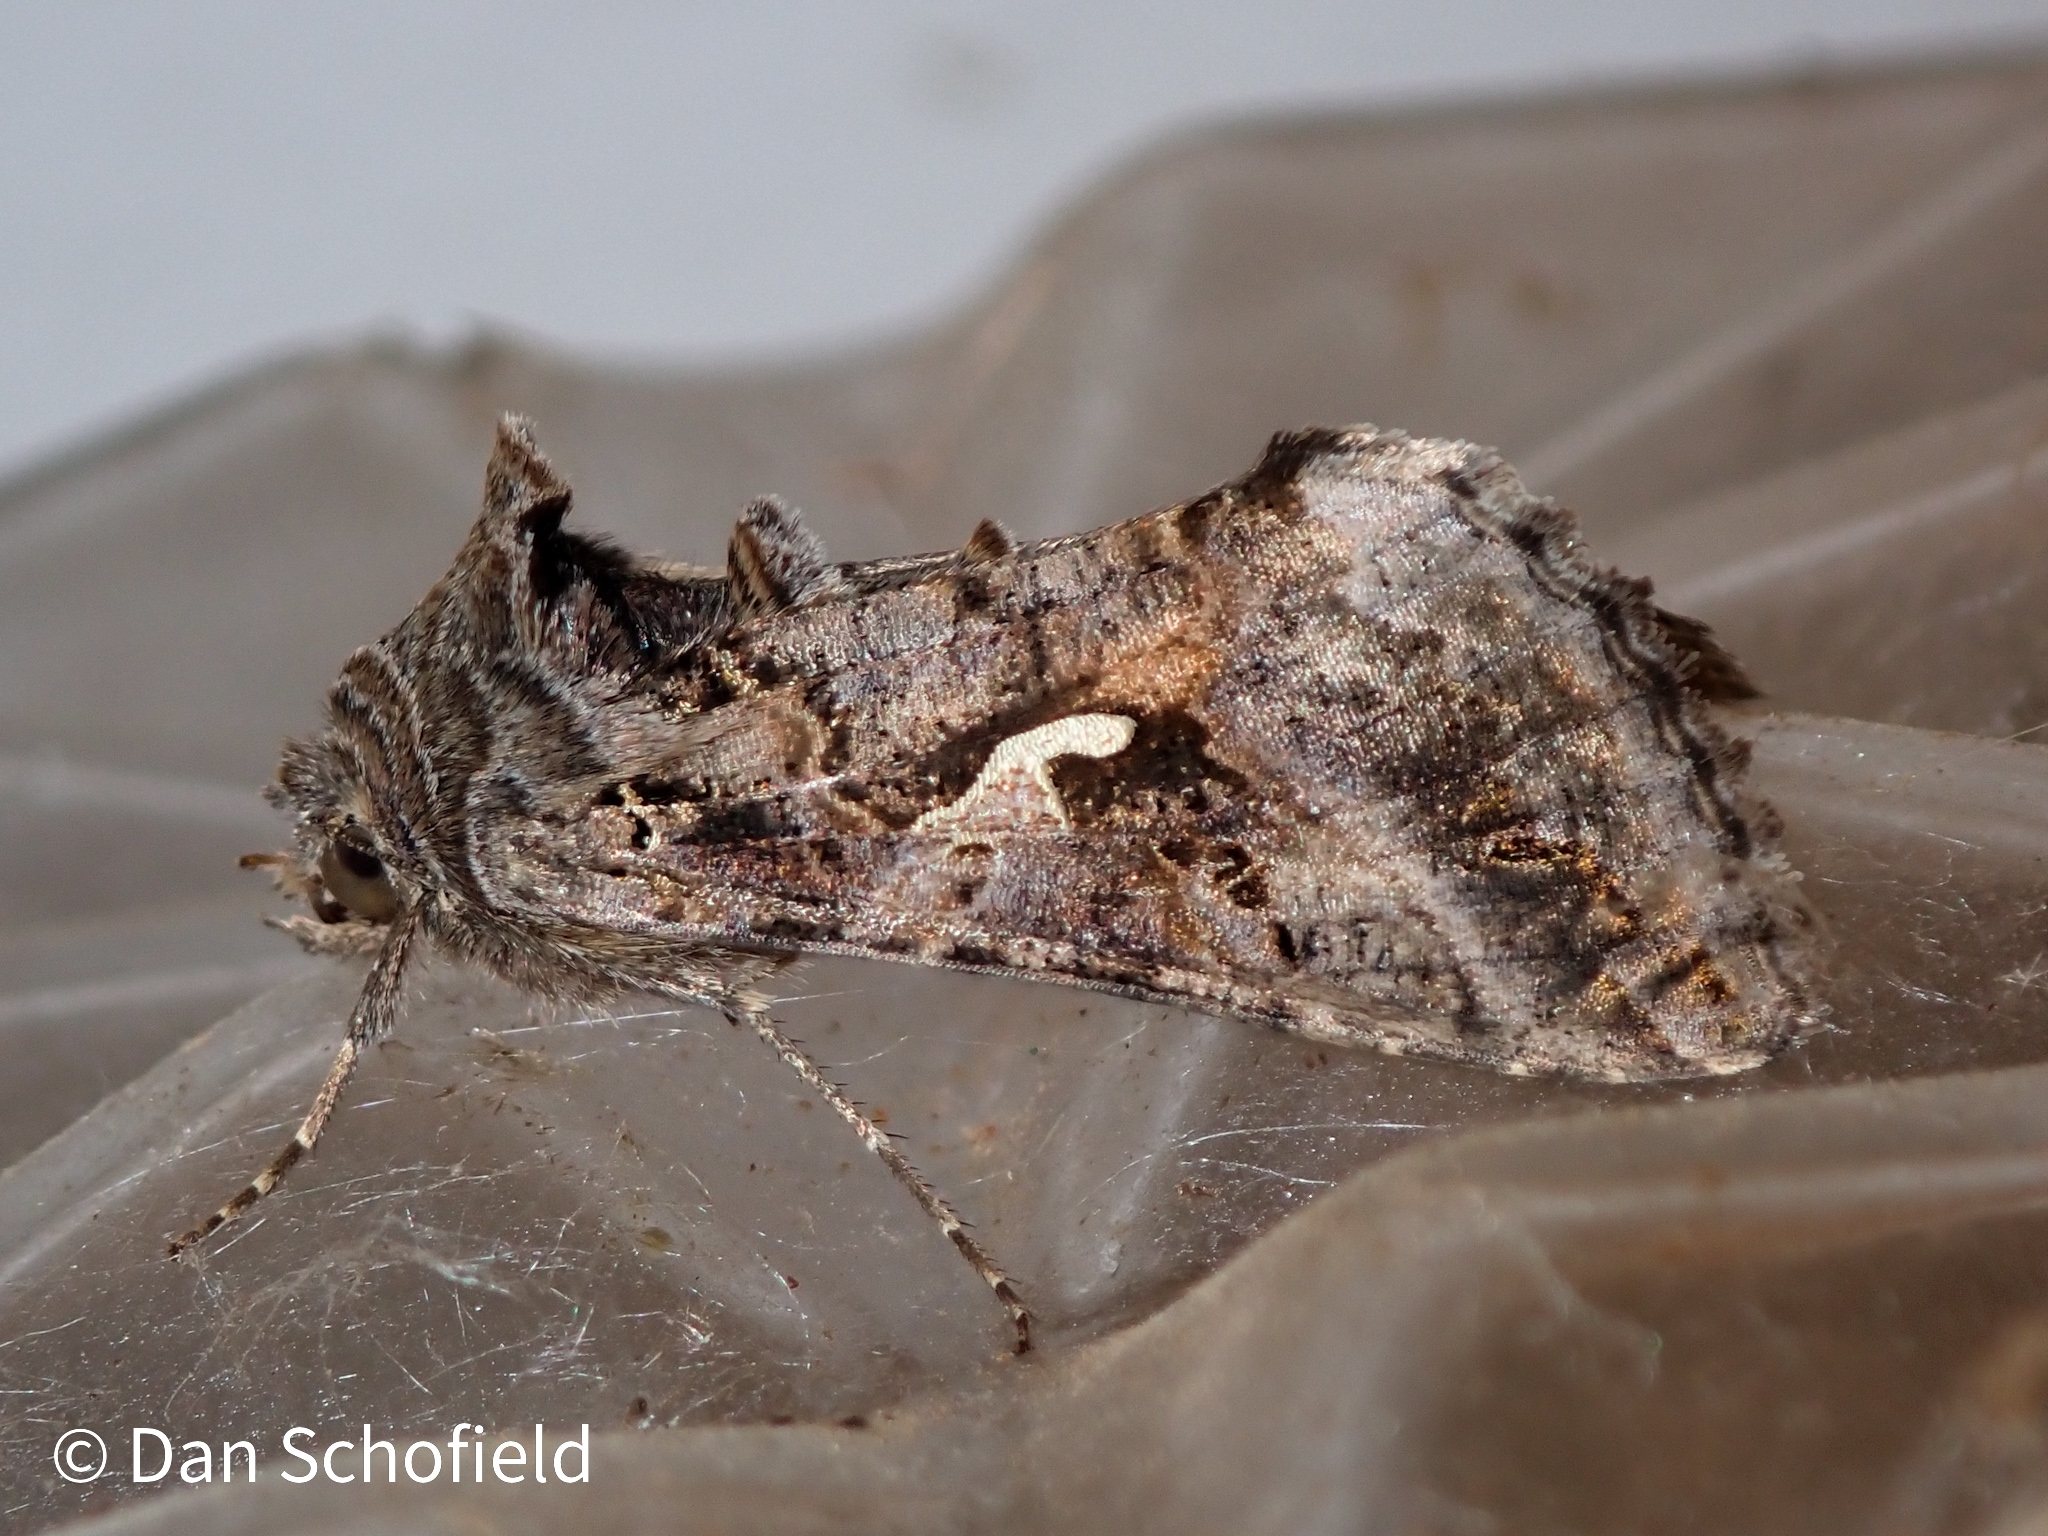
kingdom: Animalia
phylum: Arthropoda
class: Insecta
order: Lepidoptera
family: Noctuidae
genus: Autographa
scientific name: Autographa gamma
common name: Silver y
